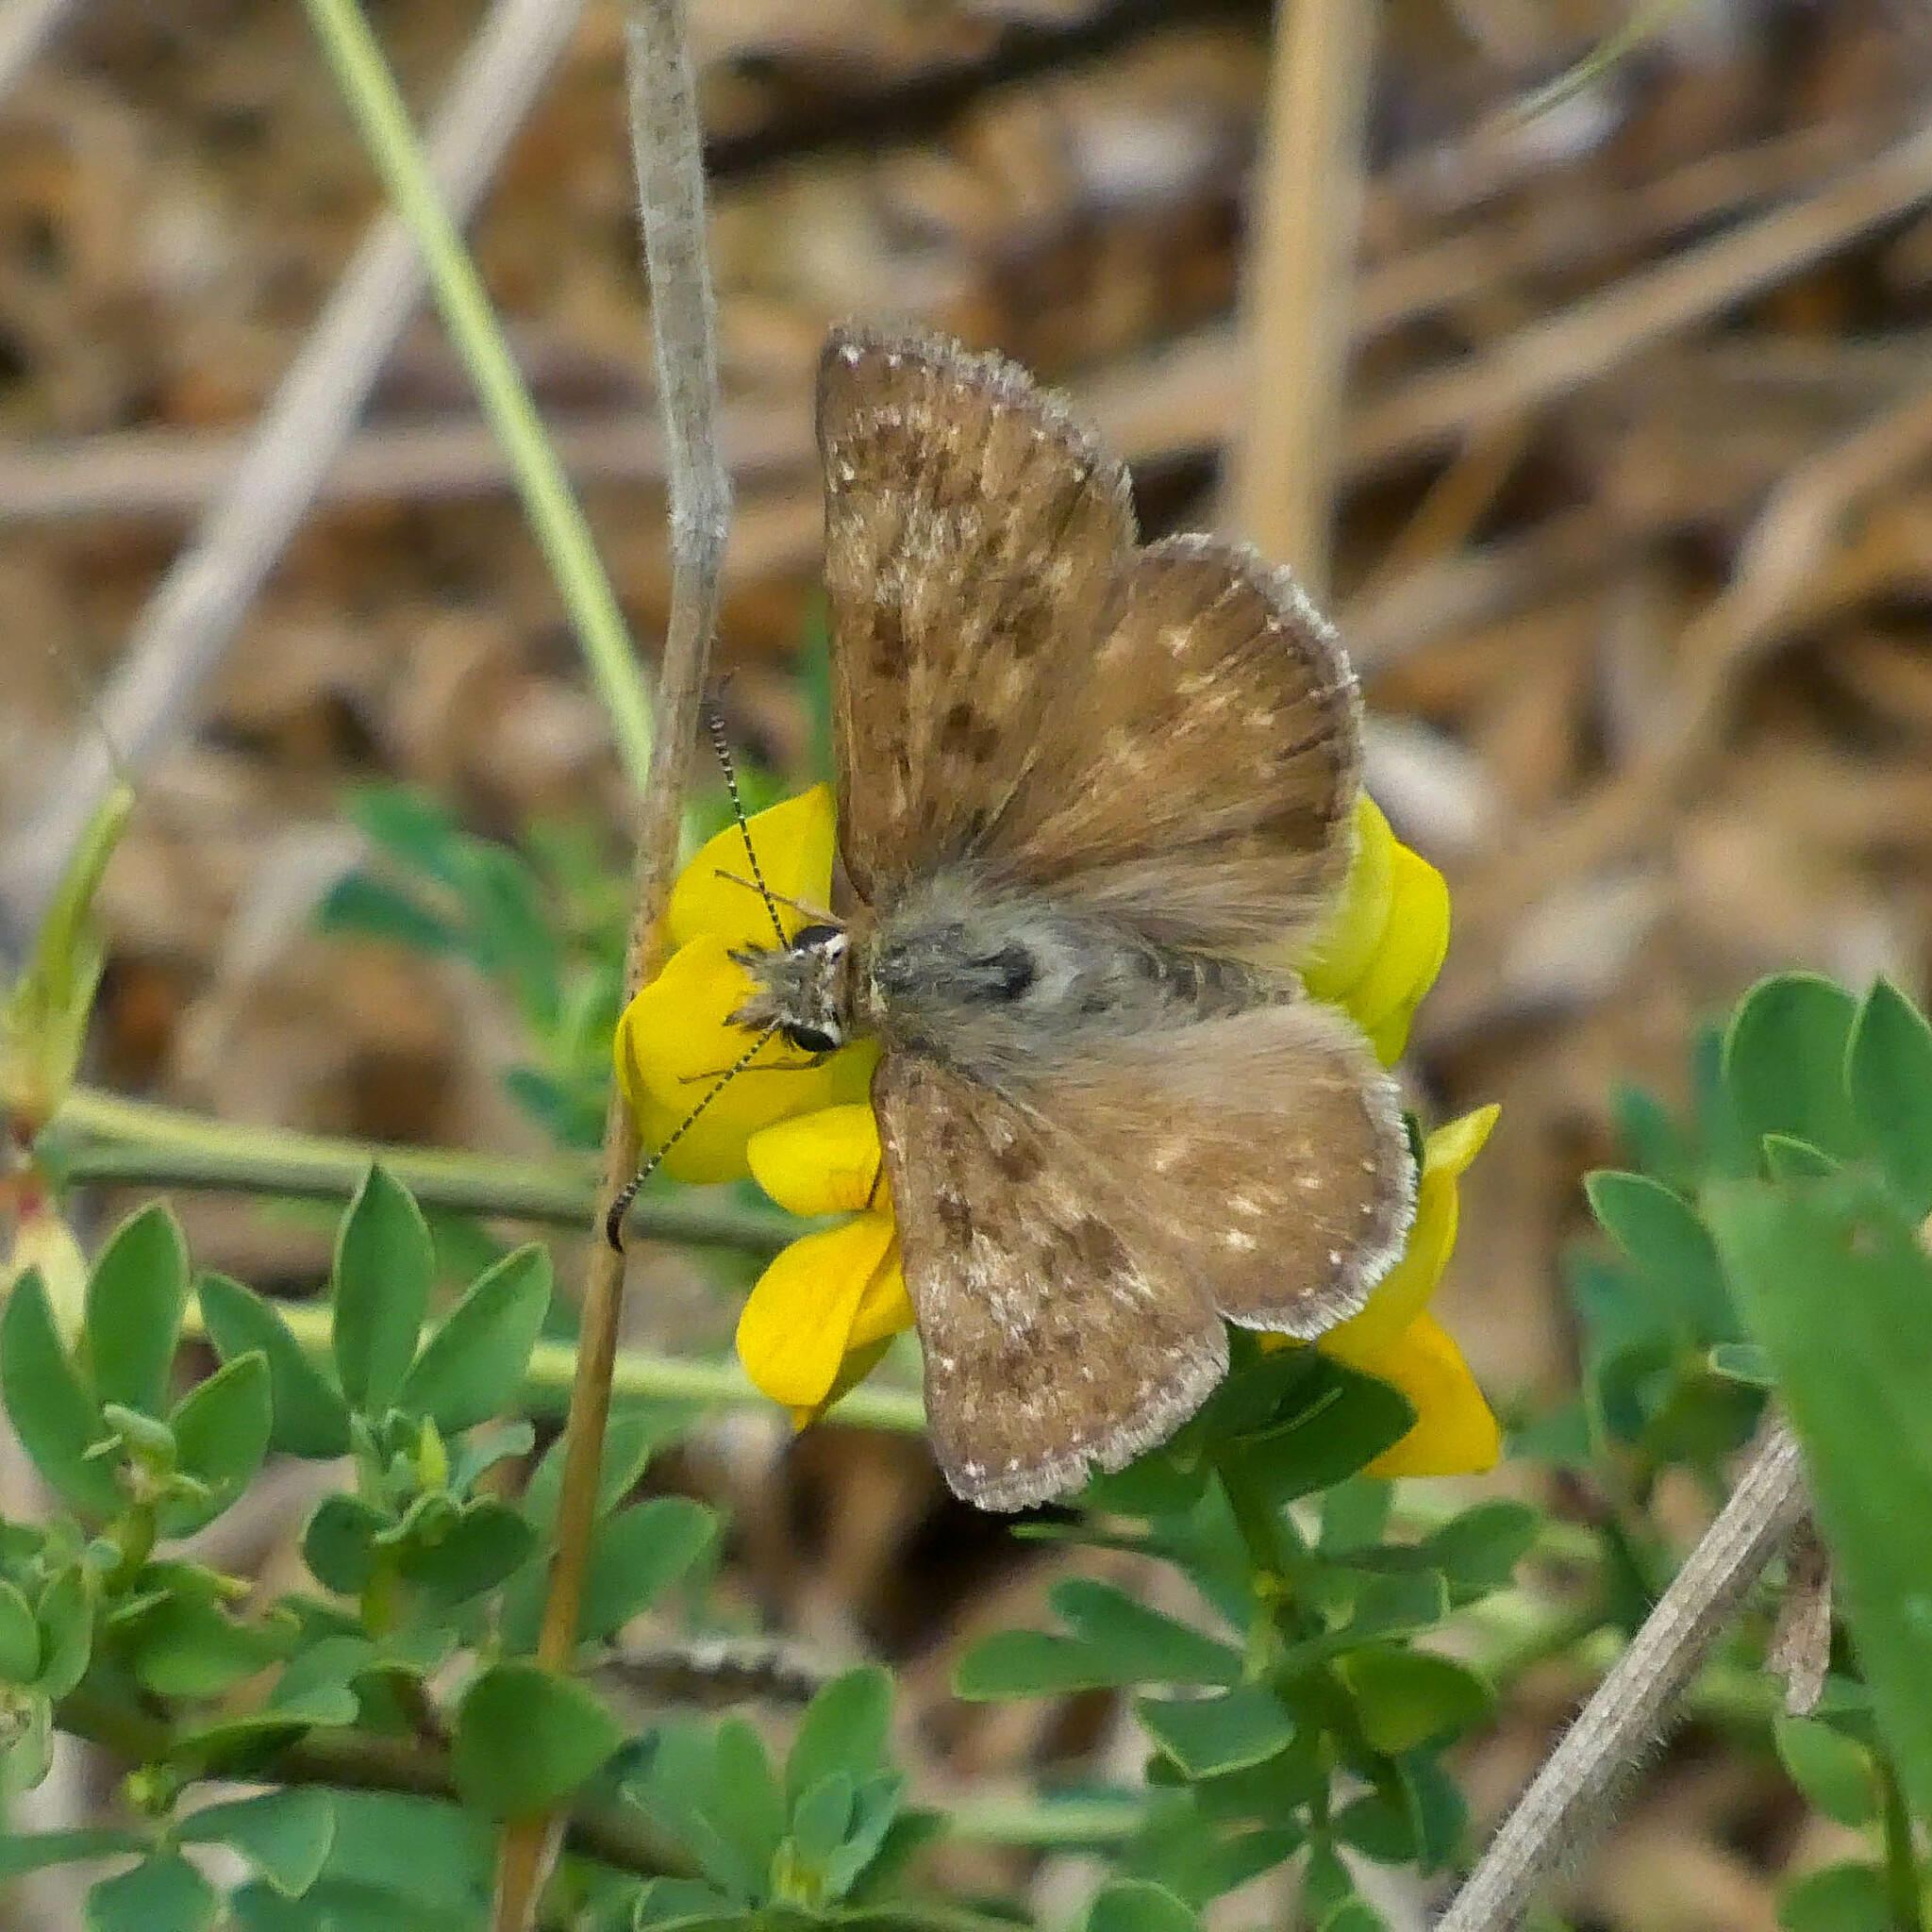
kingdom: Animalia
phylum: Arthropoda
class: Insecta
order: Lepidoptera
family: Hesperiidae
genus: Erynnis
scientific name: Erynnis tages
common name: Dingy skipper
